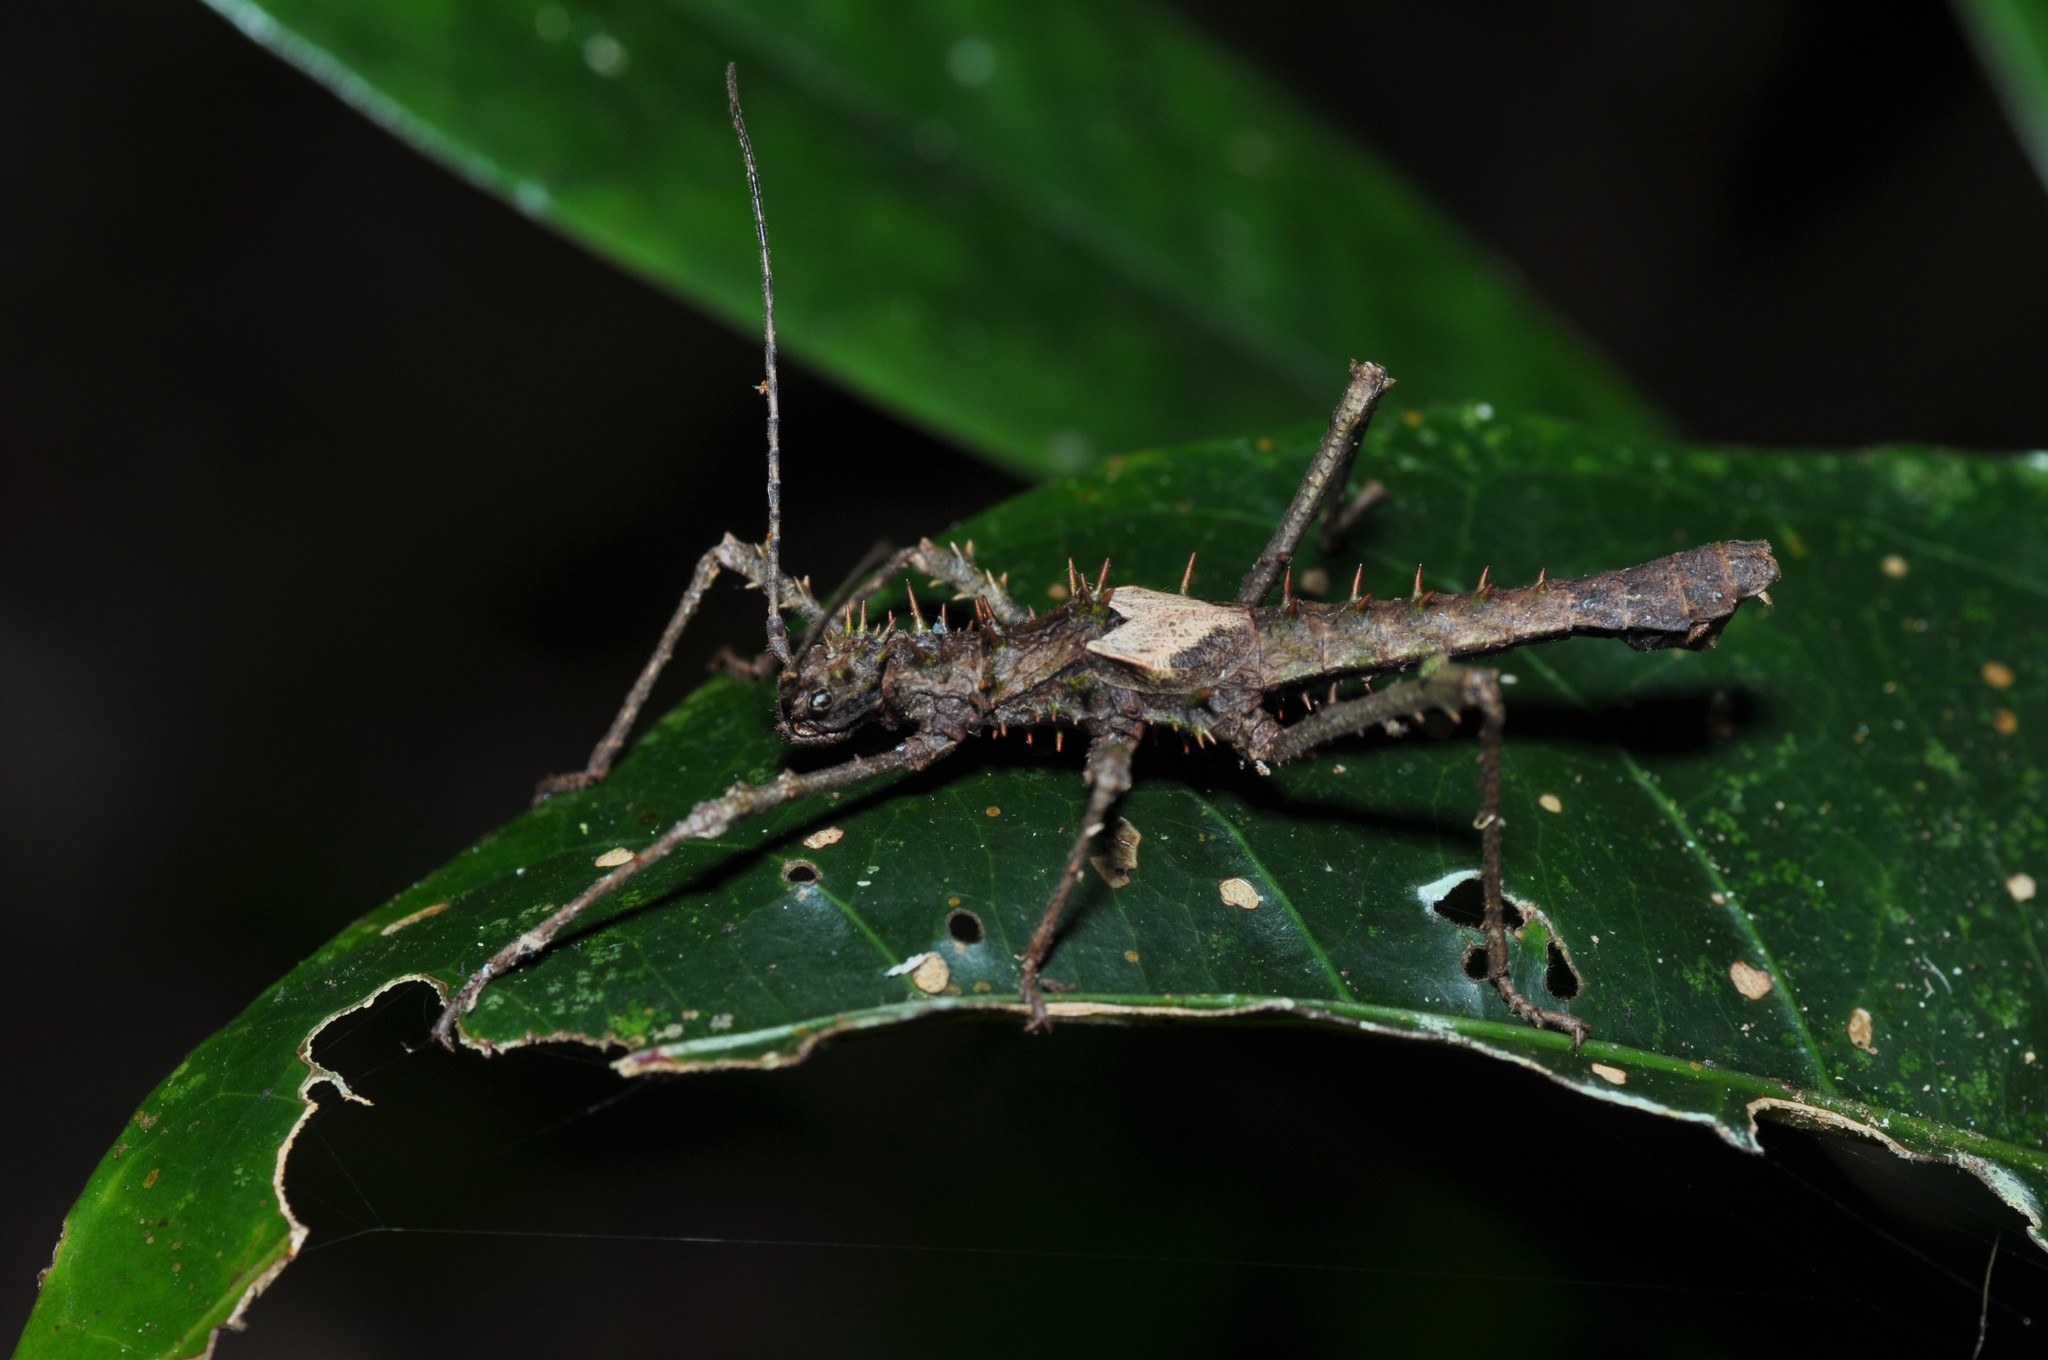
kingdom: Animalia
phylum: Arthropoda
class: Insecta
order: Phasmida
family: Heteropterygidae
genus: Haaniella
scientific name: Haaniella parva
